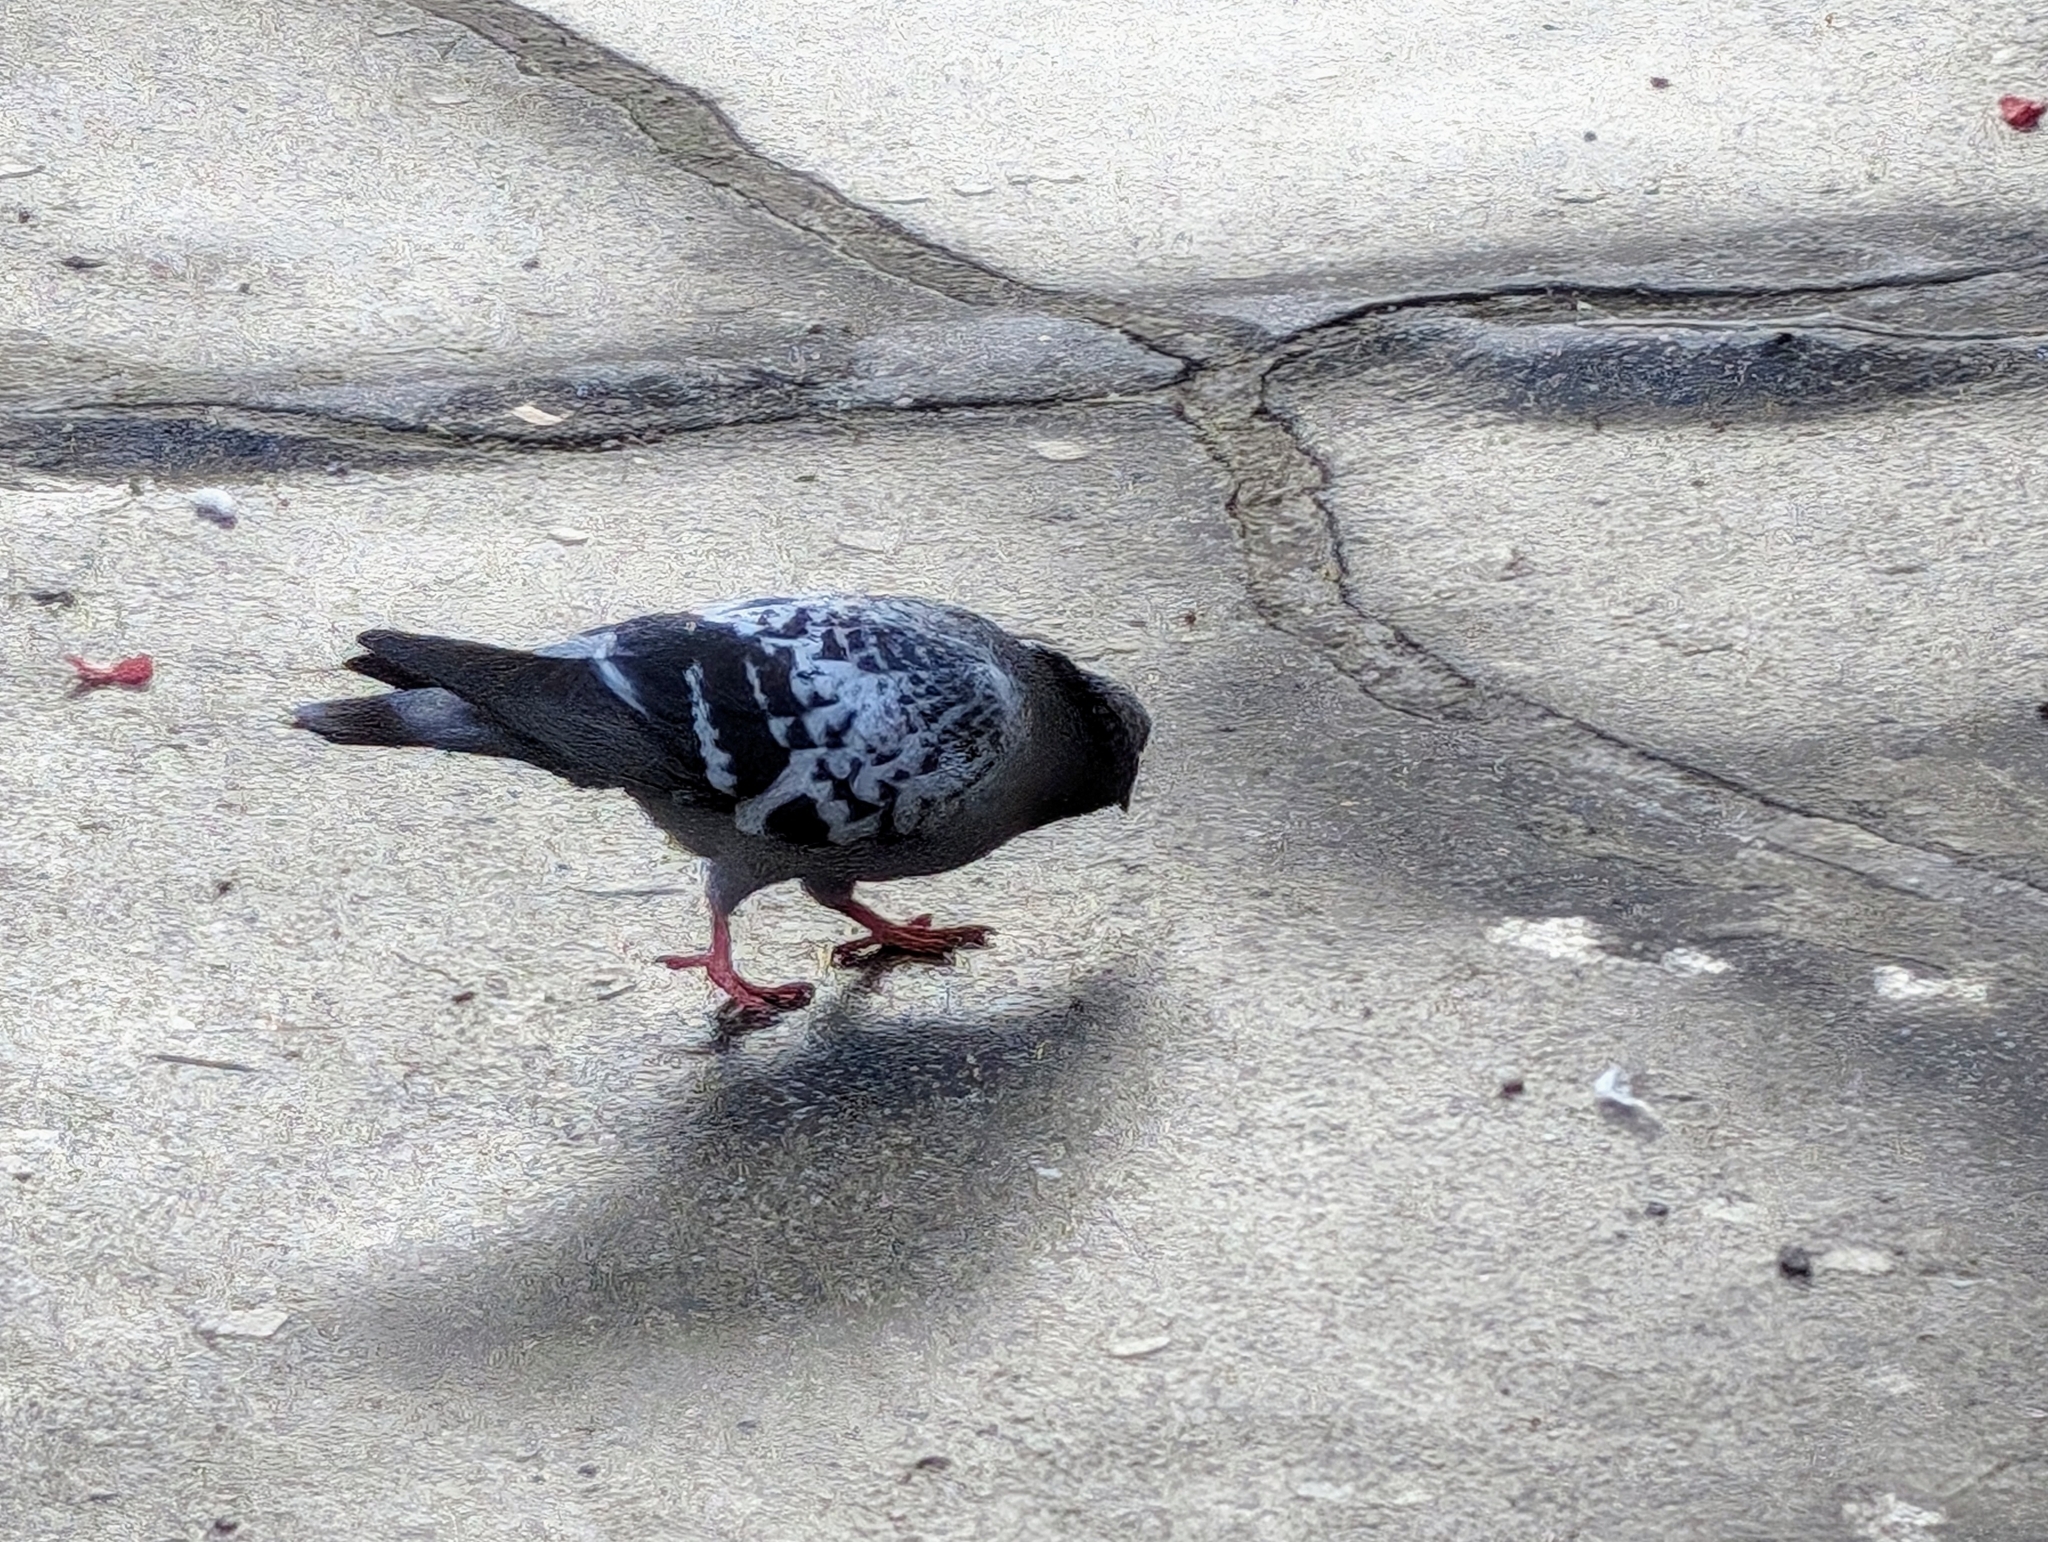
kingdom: Animalia
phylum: Chordata
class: Aves
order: Columbiformes
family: Columbidae
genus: Columba
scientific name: Columba livia
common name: Rock pigeon
